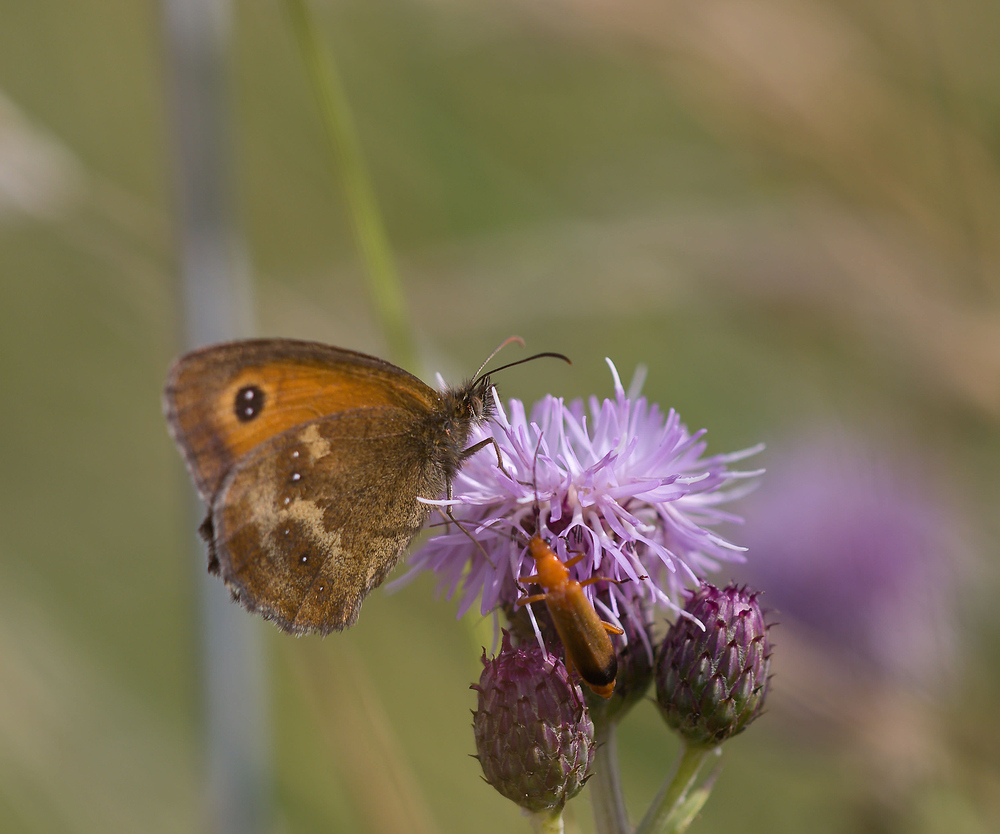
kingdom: Animalia
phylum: Arthropoda
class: Insecta
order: Lepidoptera
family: Nymphalidae
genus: Pyronia
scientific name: Pyronia tithonus
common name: Gatekeeper
